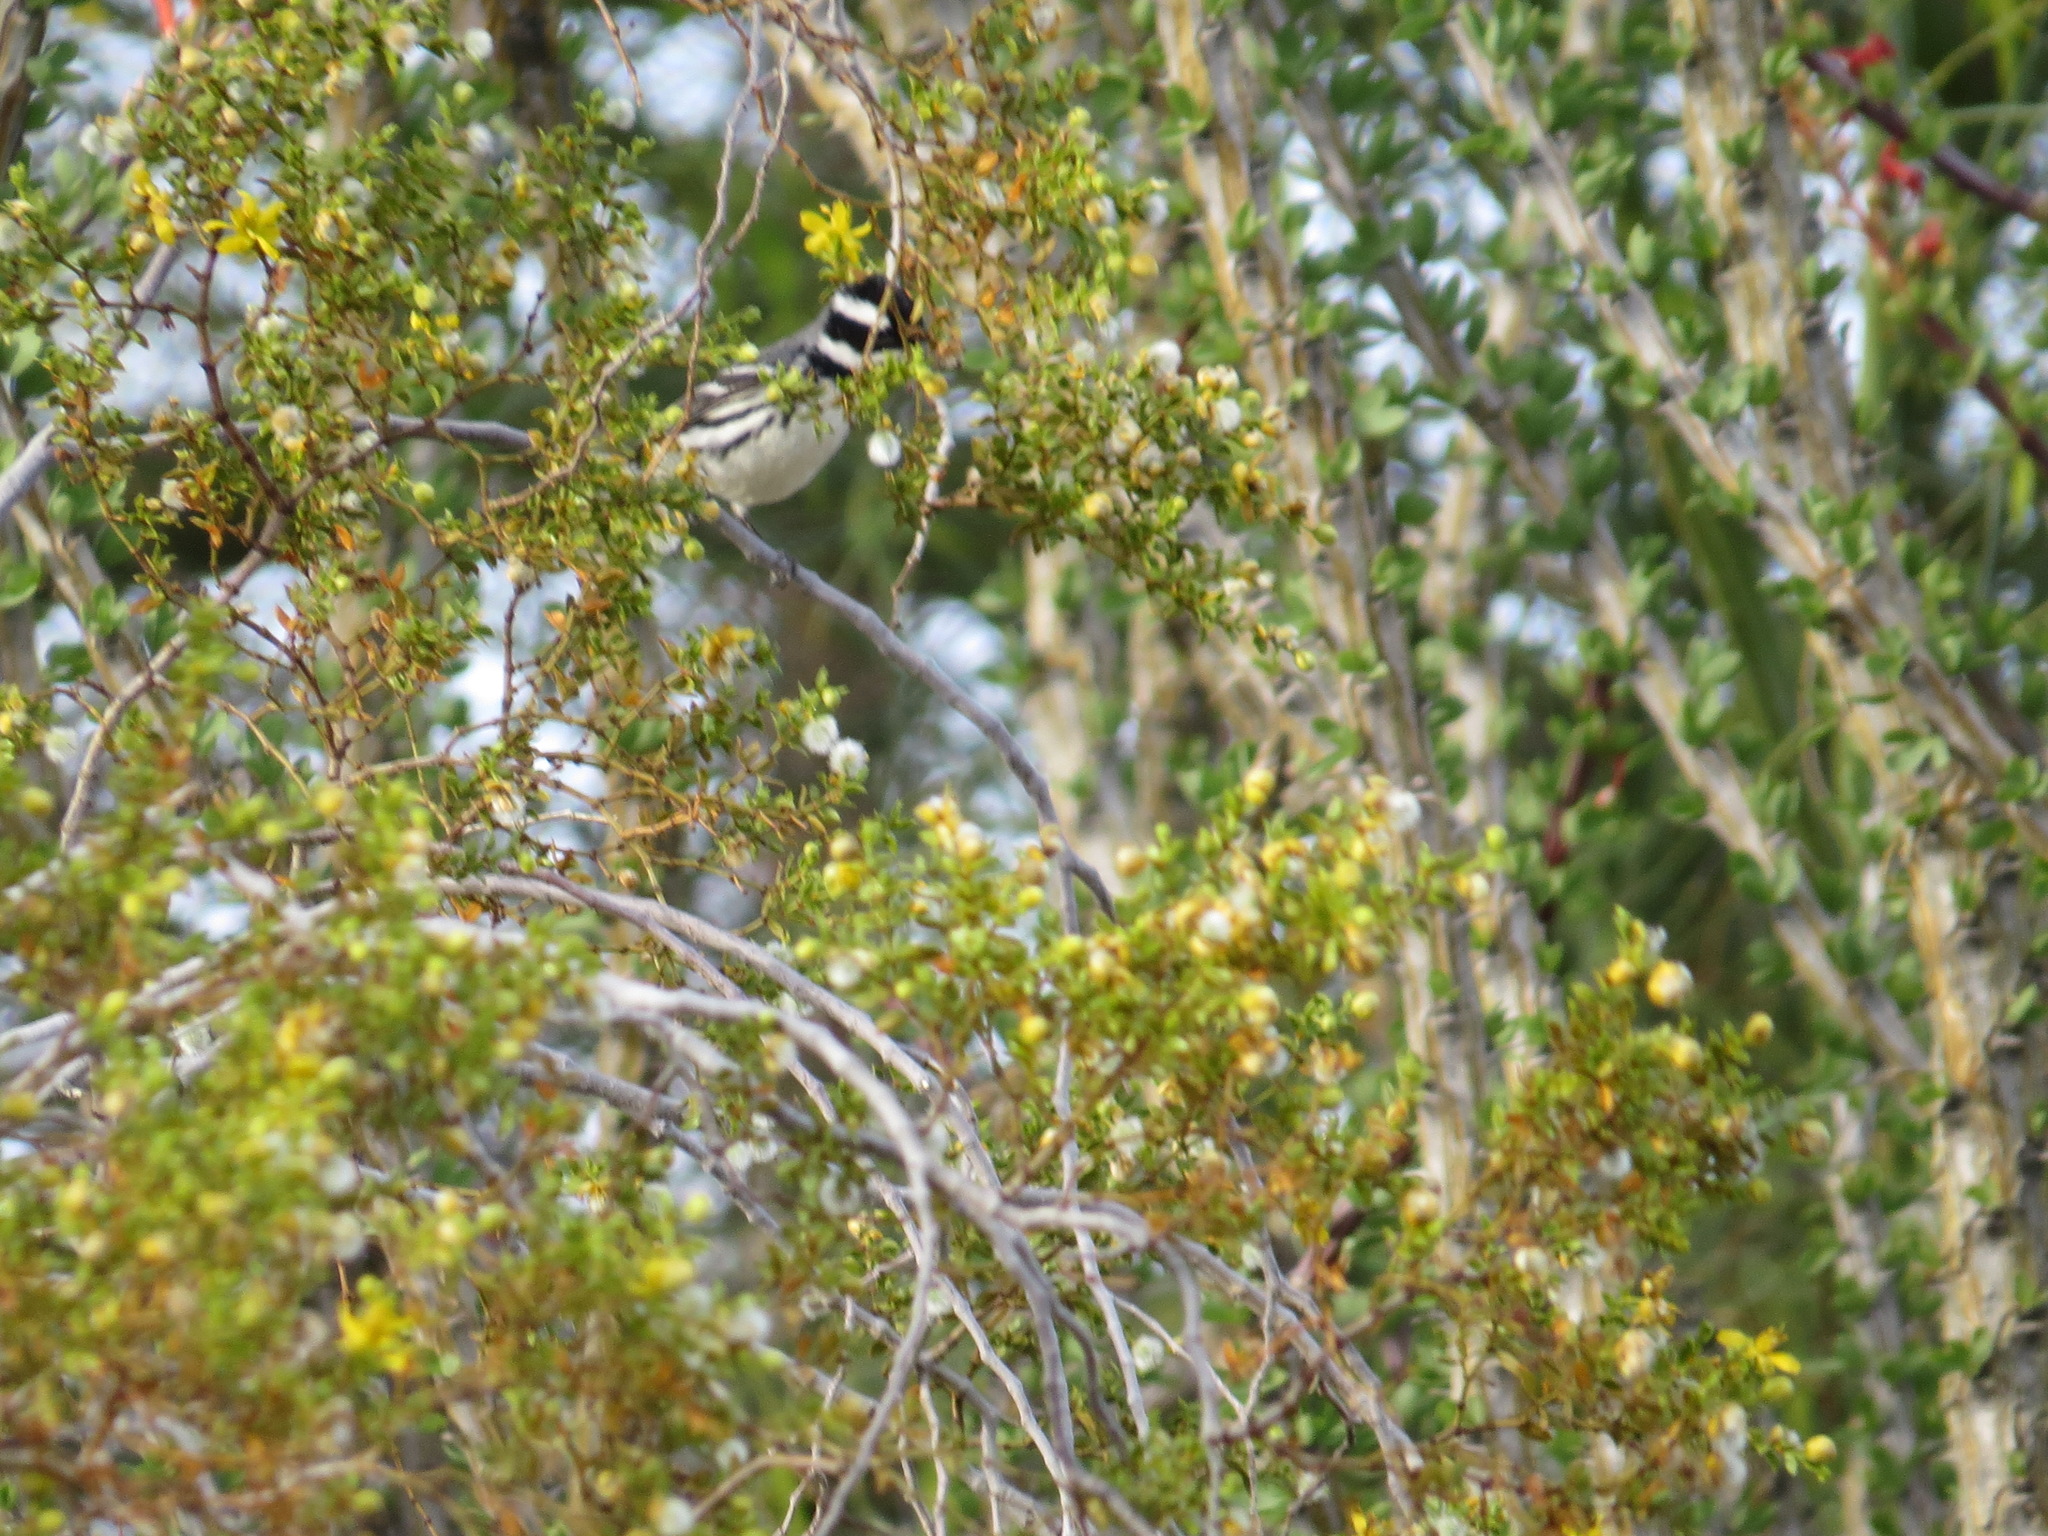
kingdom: Animalia
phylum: Chordata
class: Aves
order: Passeriformes
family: Parulidae
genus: Setophaga
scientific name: Setophaga nigrescens
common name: Black-throated gray warbler
